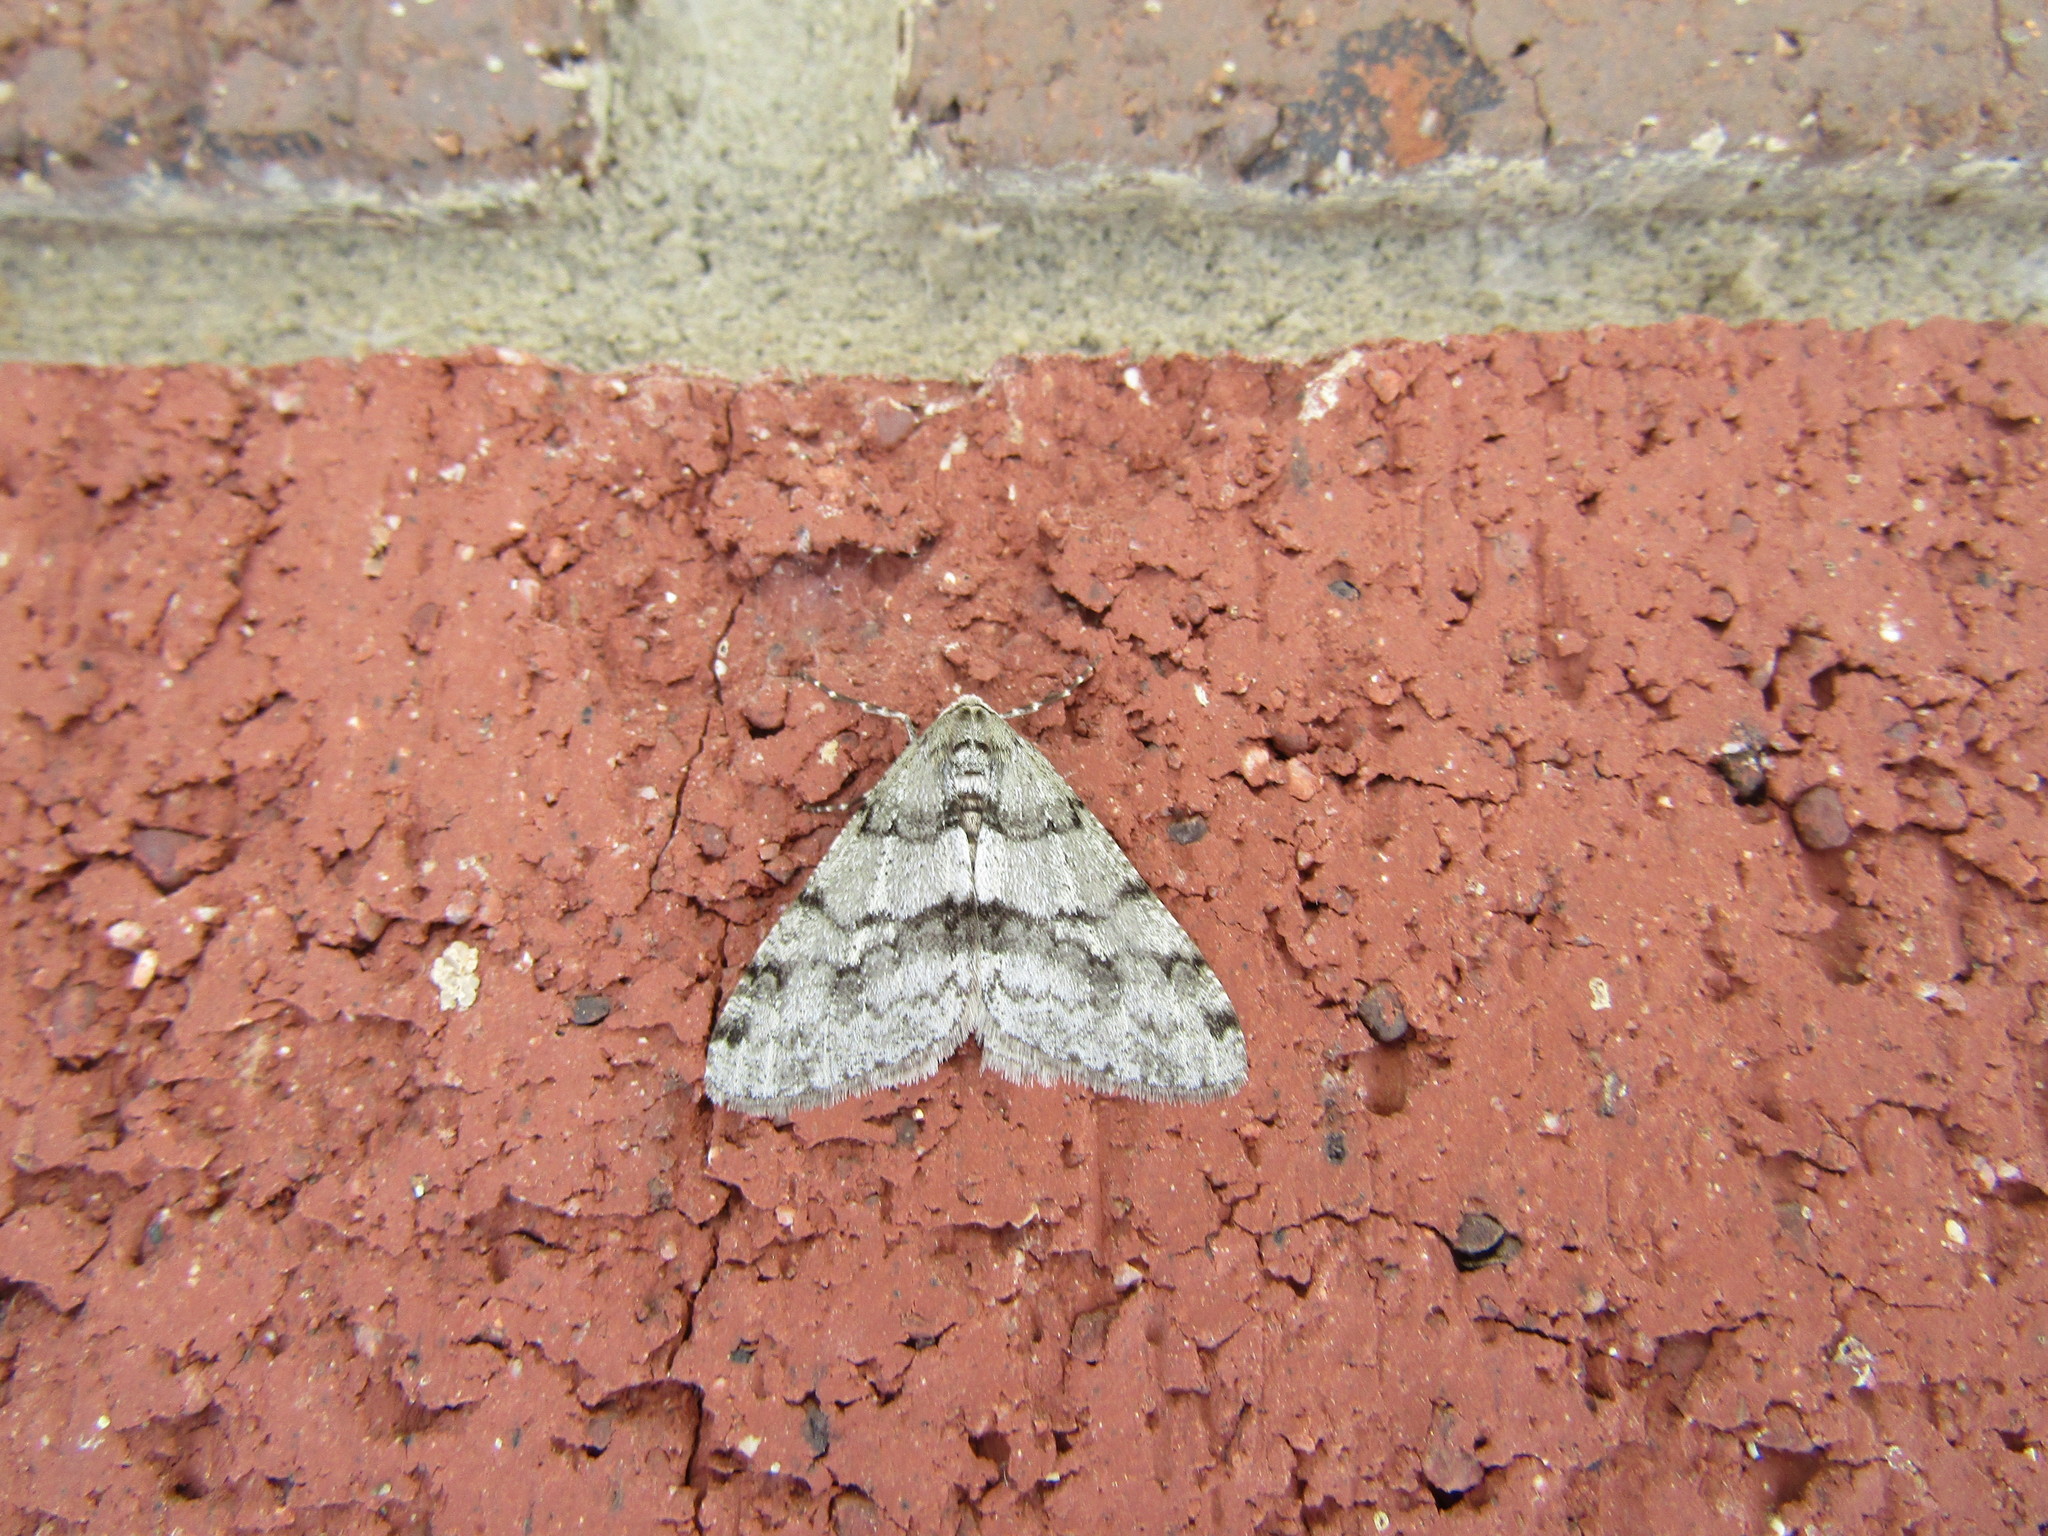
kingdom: Animalia
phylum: Arthropoda
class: Insecta
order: Lepidoptera
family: Geometridae
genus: Phigalia
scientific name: Phigalia strigataria
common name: Small phigalia
